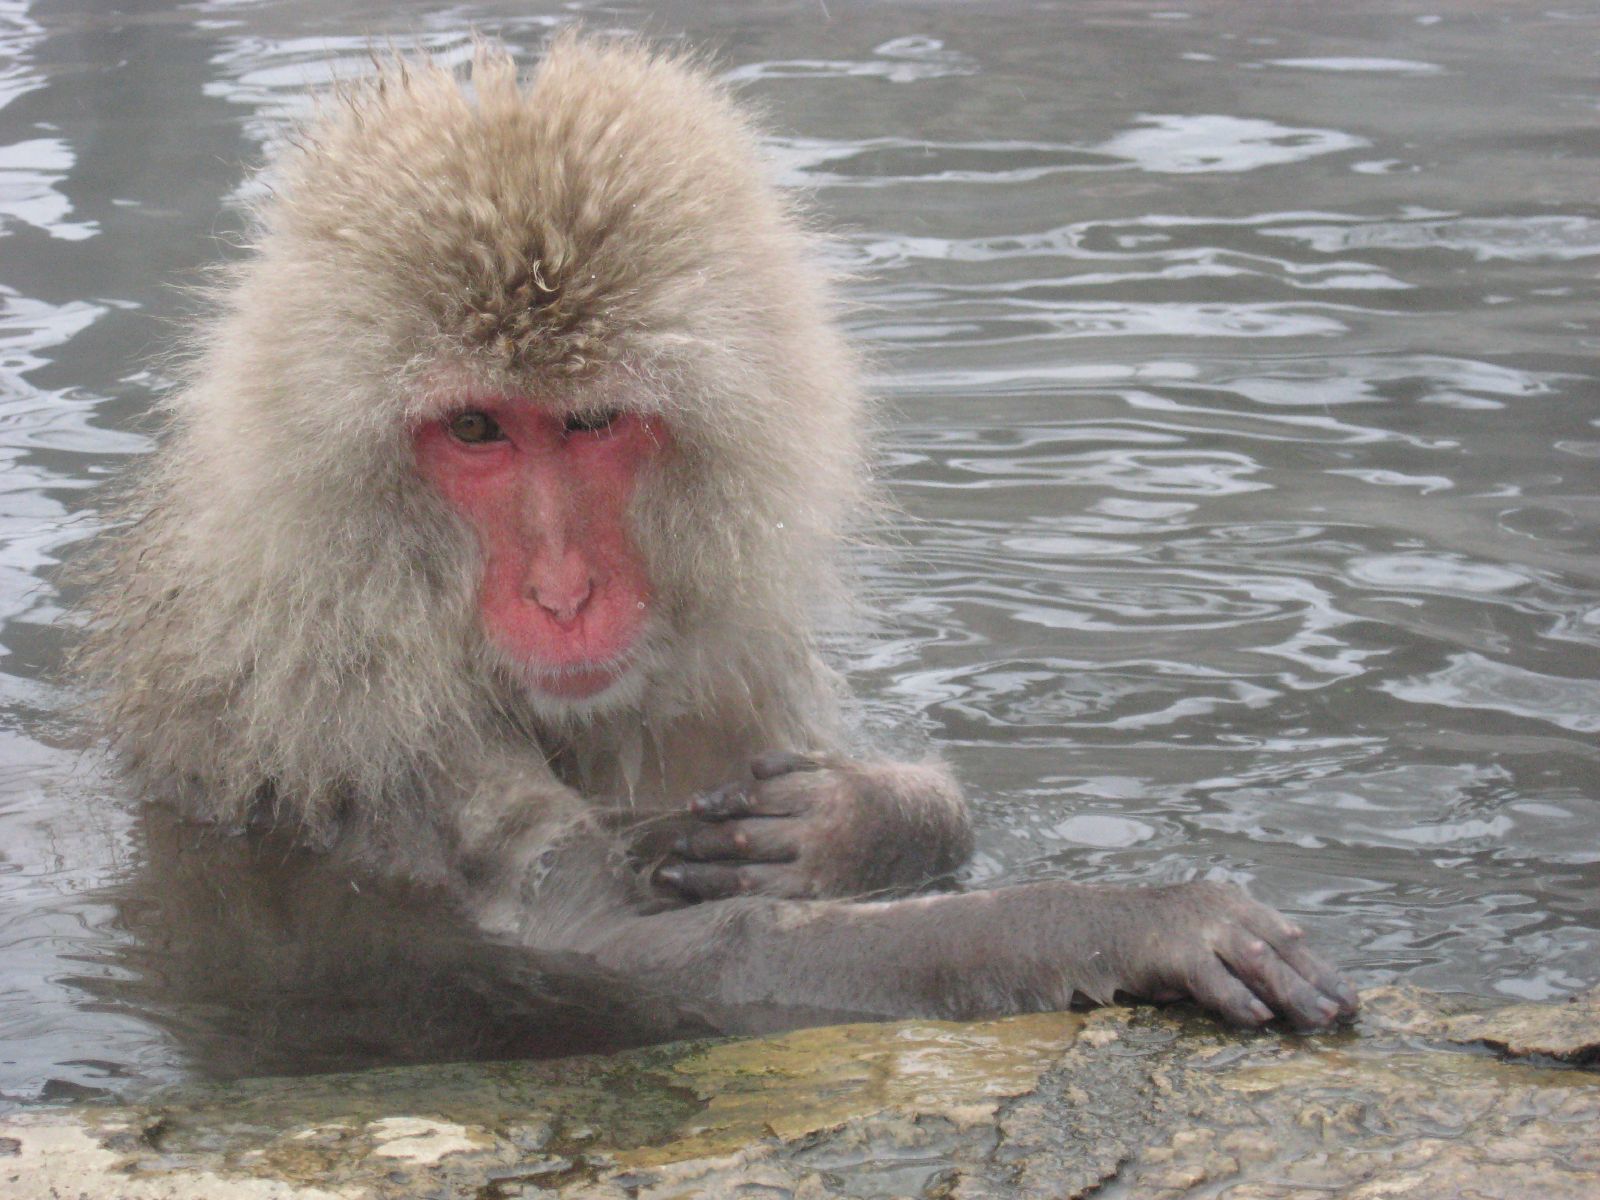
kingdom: Animalia
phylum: Chordata
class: Mammalia
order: Primates
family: Cercopithecidae
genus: Macaca
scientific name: Macaca fuscata
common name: Japanese macaque
